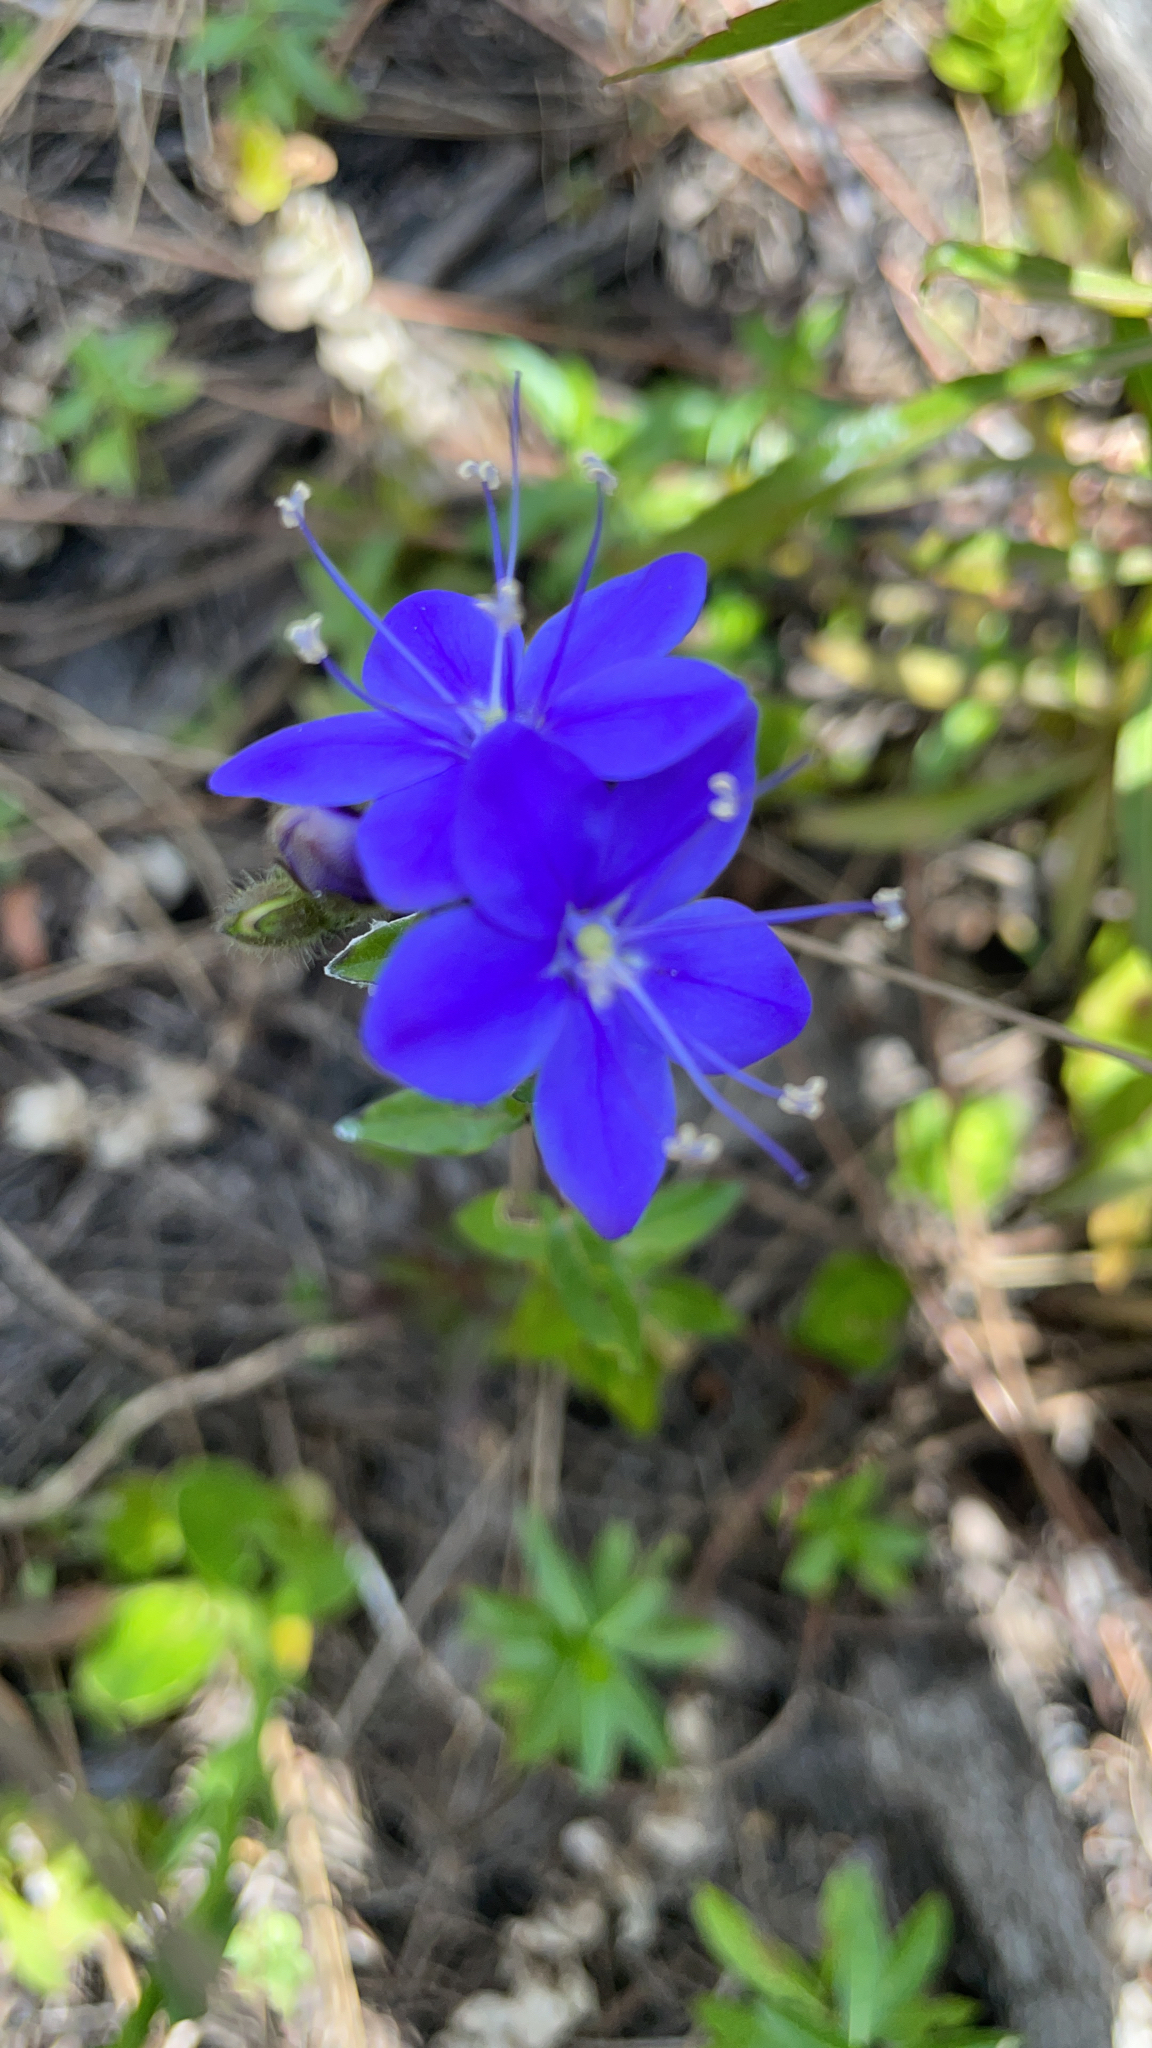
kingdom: Plantae
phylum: Tracheophyta
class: Magnoliopsida
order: Solanales
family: Hydroleaceae
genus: Hydrolea
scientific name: Hydrolea ovata
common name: Ovate false fiddleleaf
